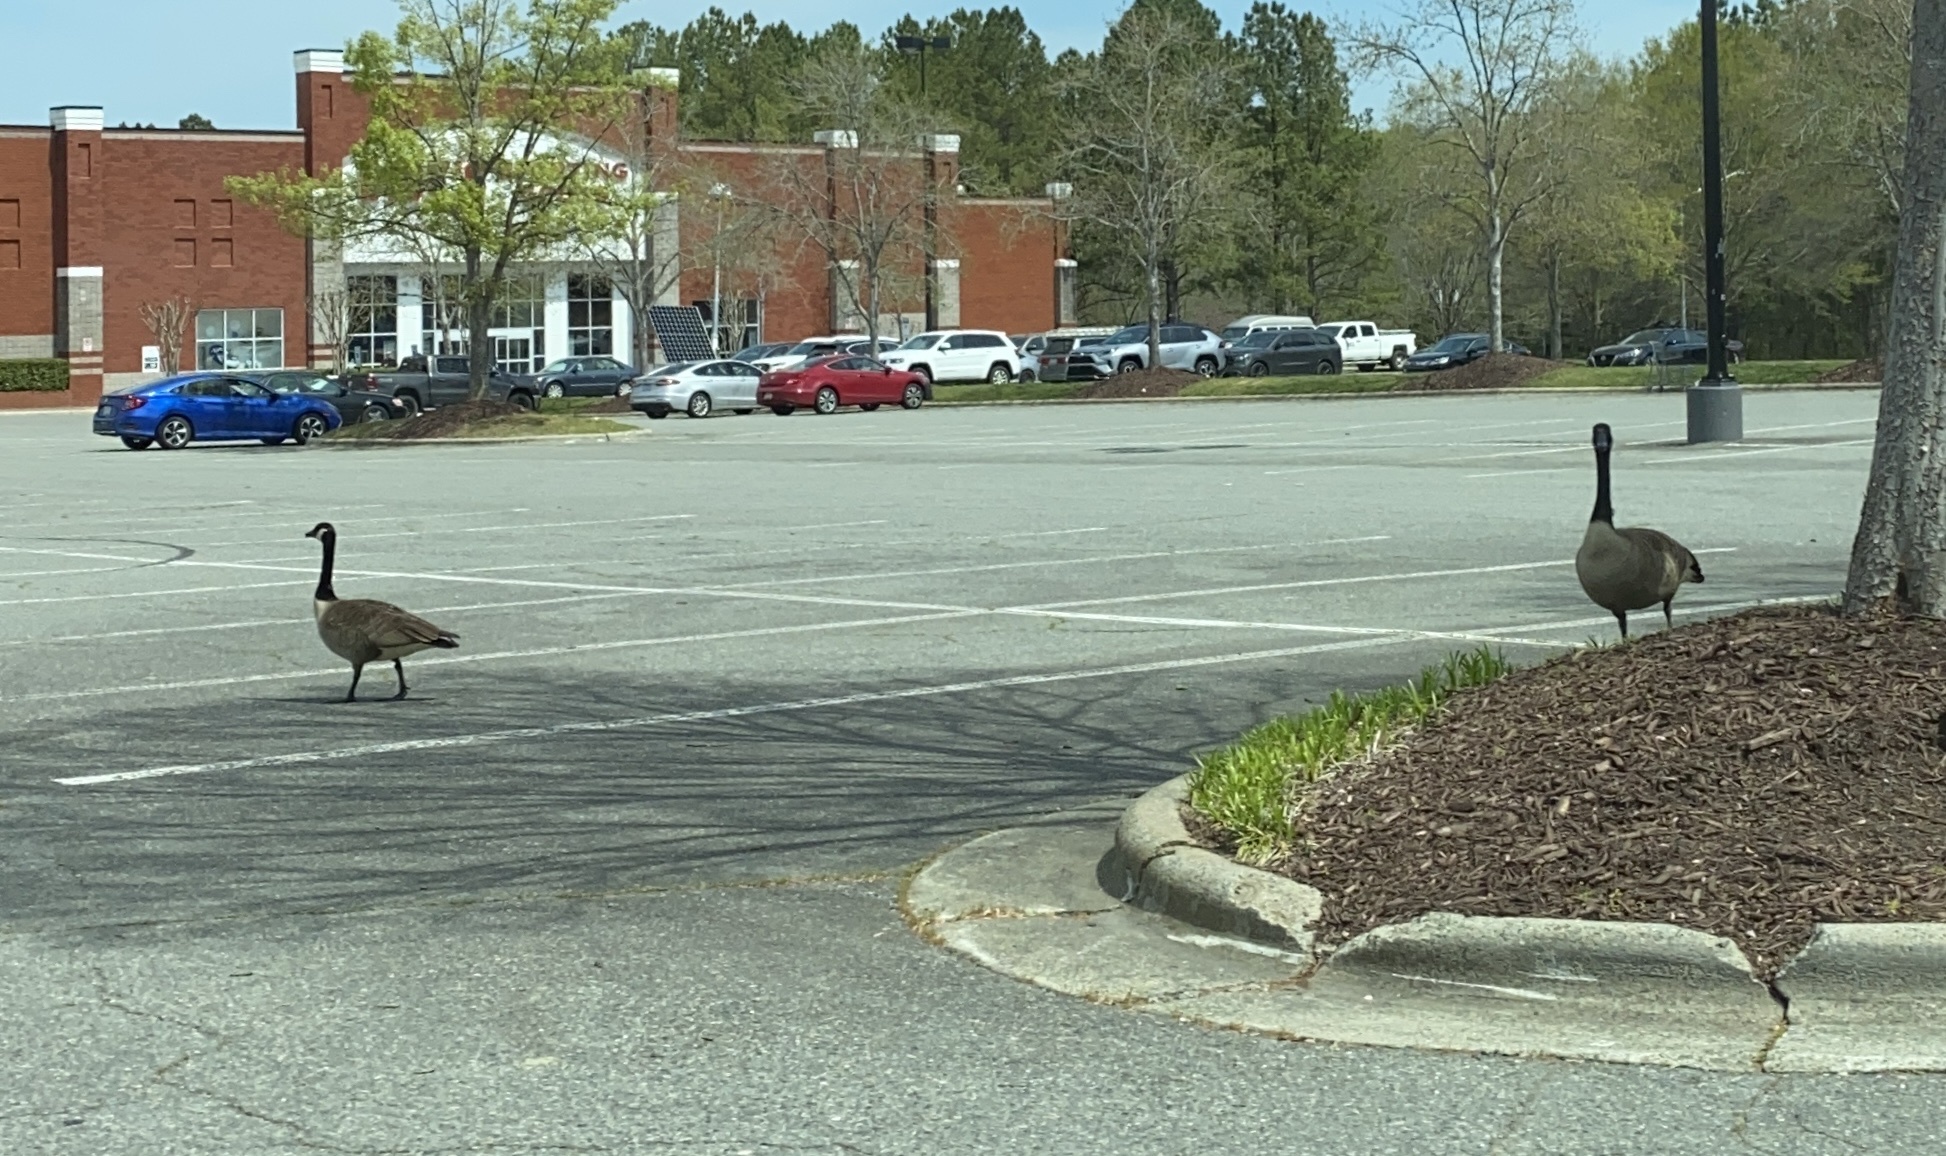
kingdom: Animalia
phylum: Chordata
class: Aves
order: Anseriformes
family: Anatidae
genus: Branta
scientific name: Branta canadensis
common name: Canada goose
